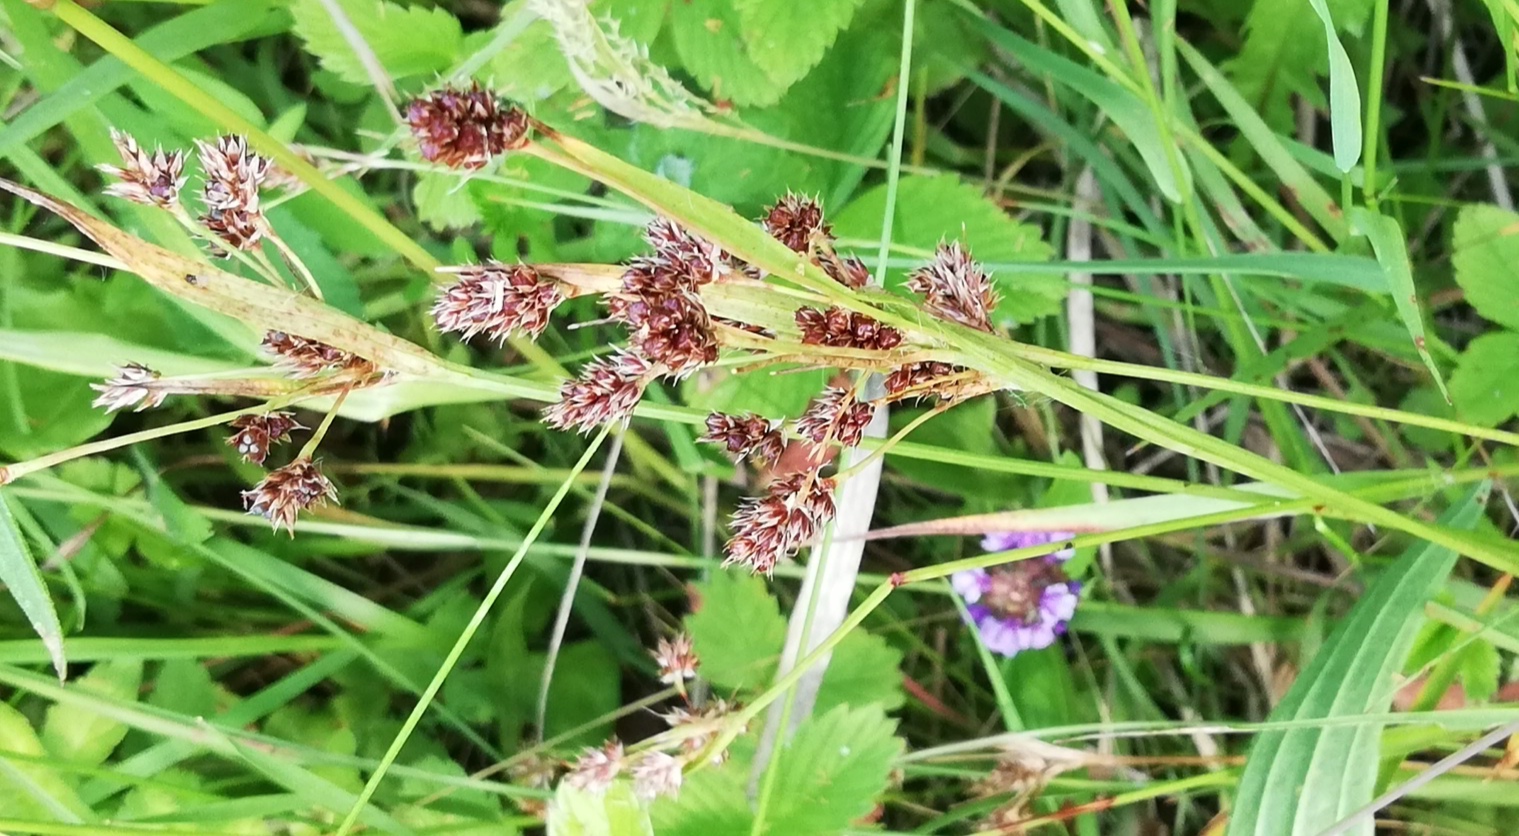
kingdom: Plantae
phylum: Tracheophyta
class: Liliopsida
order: Poales
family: Juncaceae
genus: Luzula
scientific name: Luzula multiflora
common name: Heath wood-rush
